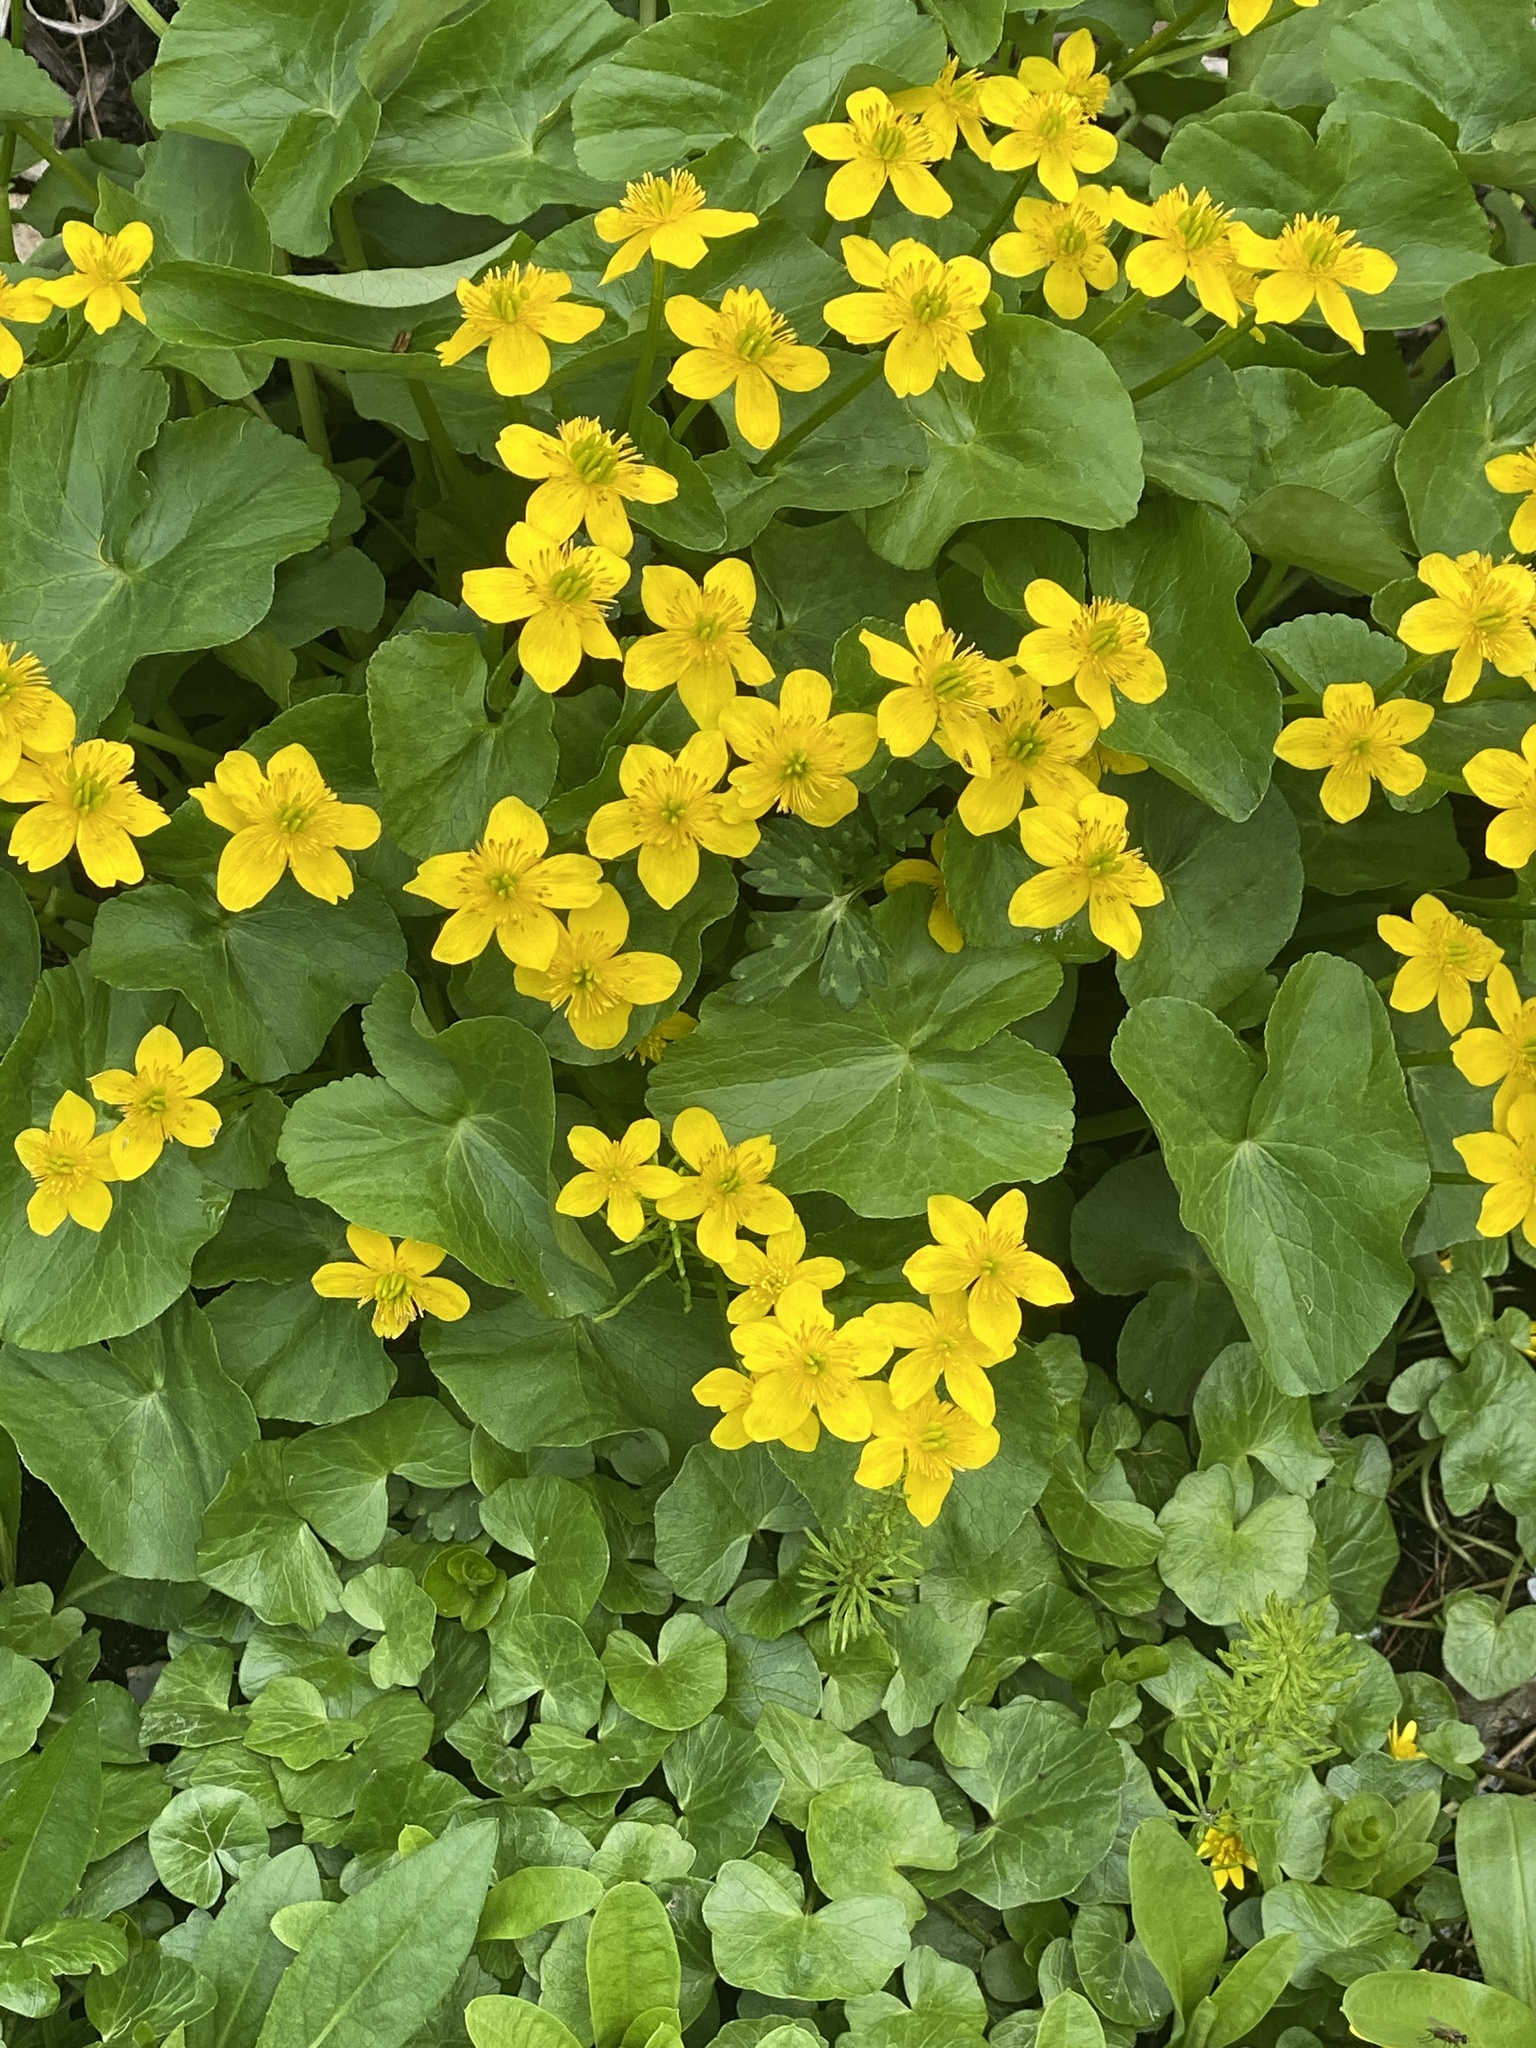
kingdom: Plantae
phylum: Tracheophyta
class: Magnoliopsida
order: Ranunculales
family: Ranunculaceae
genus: Caltha
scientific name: Caltha palustris
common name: Marsh marigold
